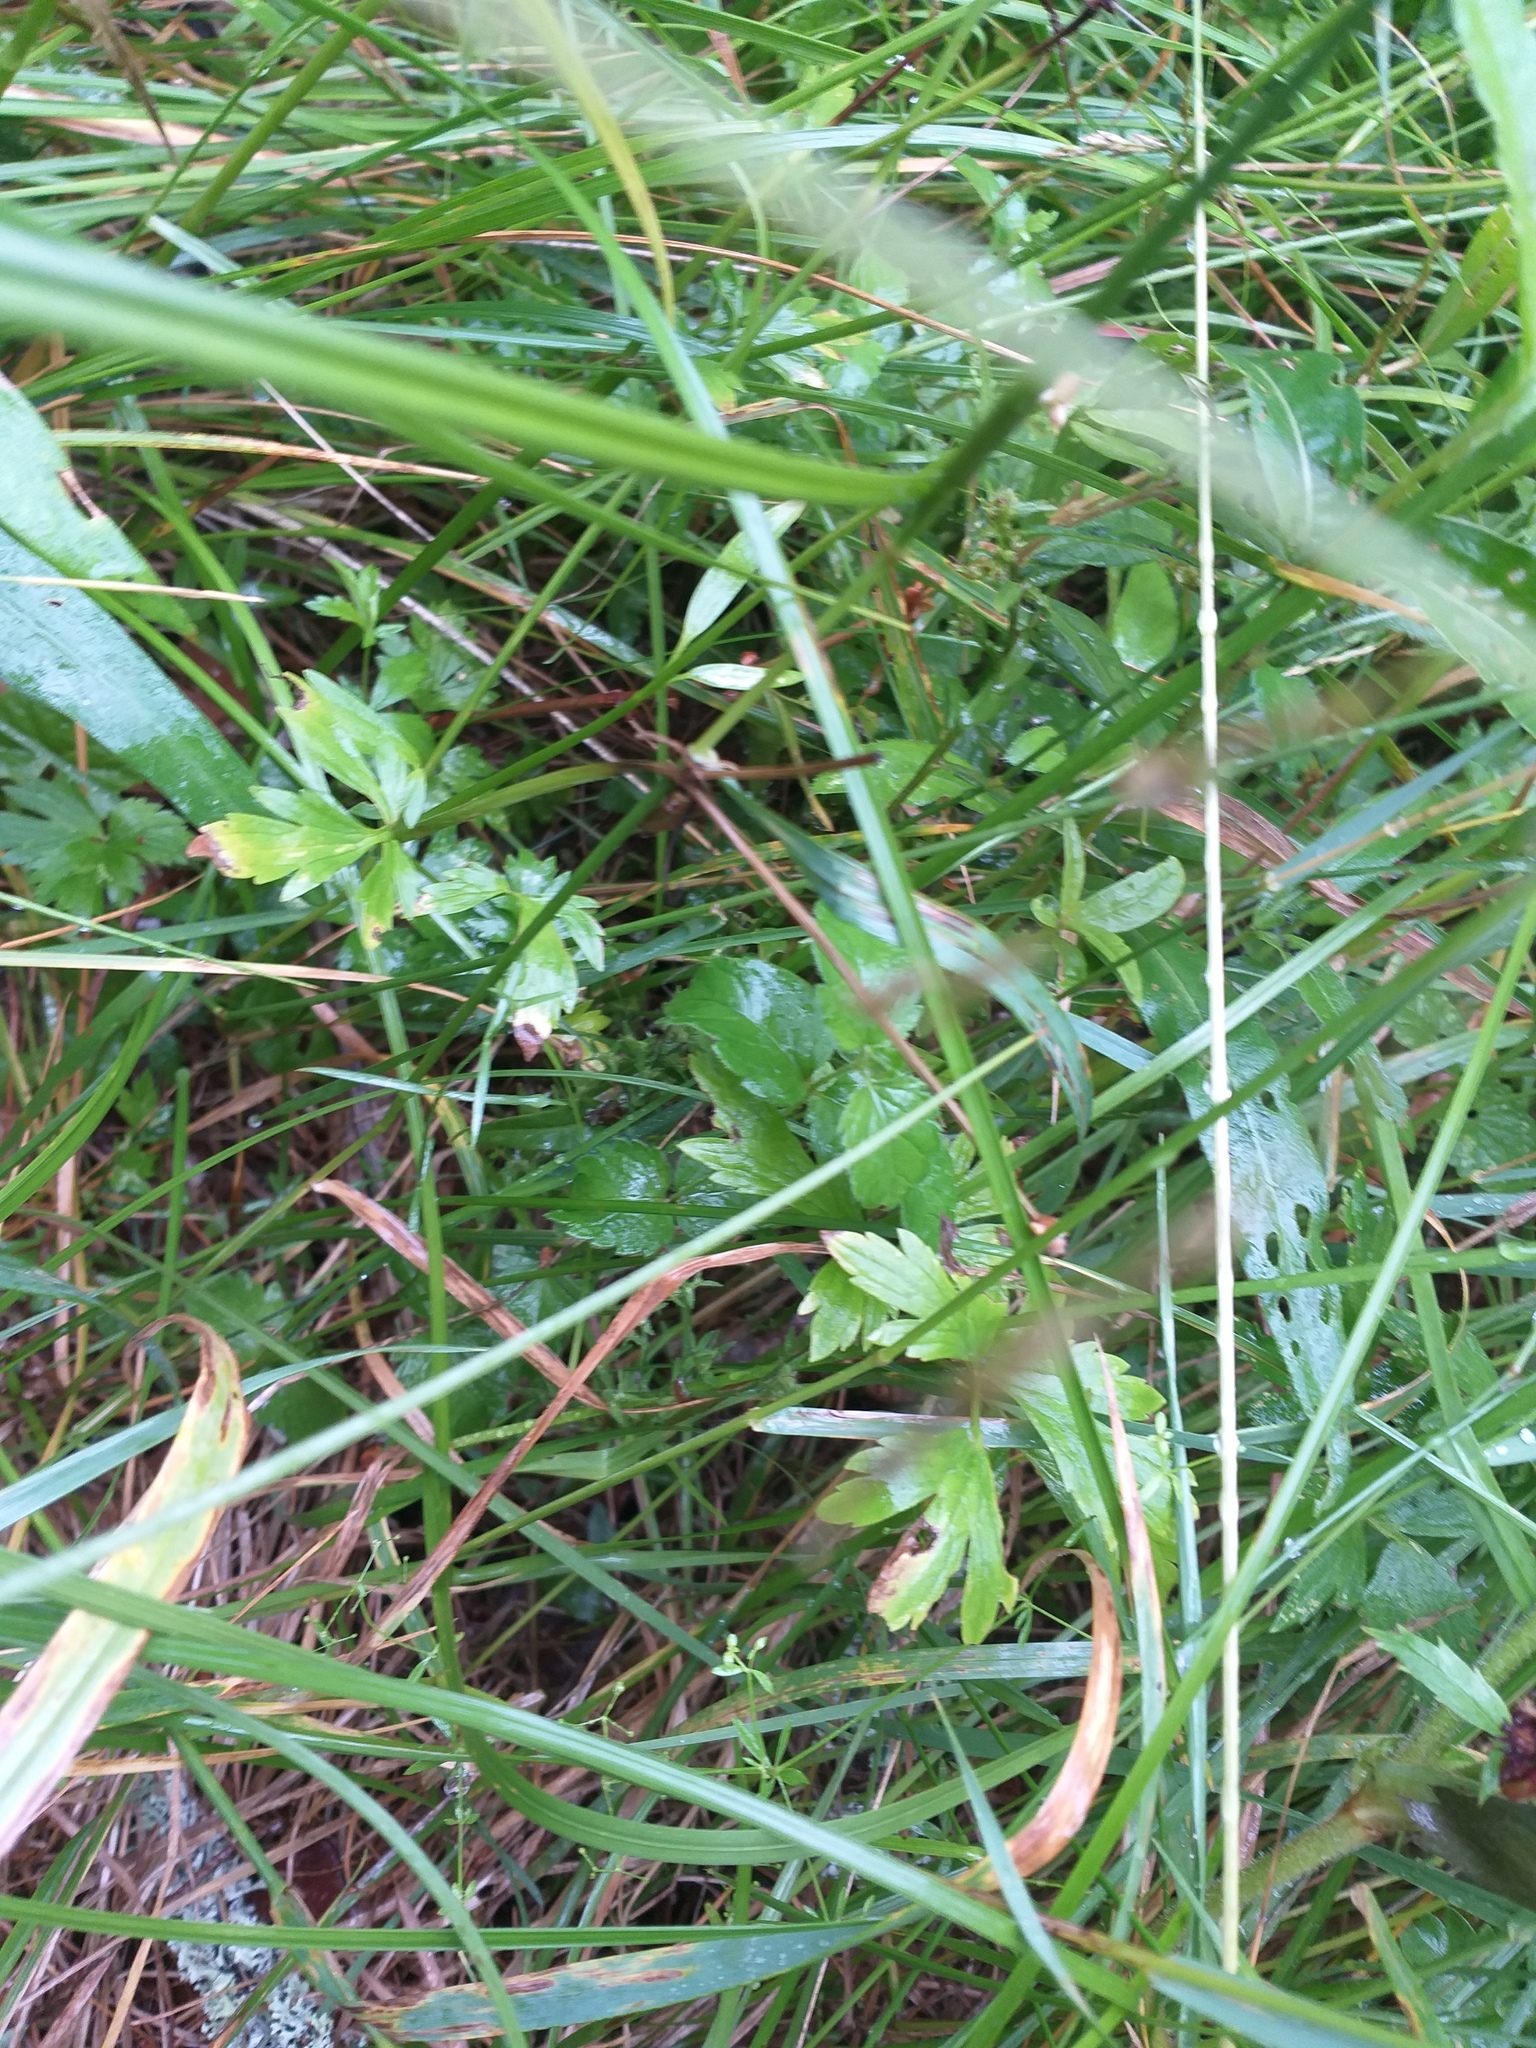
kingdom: Plantae
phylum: Tracheophyta
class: Magnoliopsida
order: Ranunculales
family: Ranunculaceae
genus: Ranunculus
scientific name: Ranunculus repens
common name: Creeping buttercup
